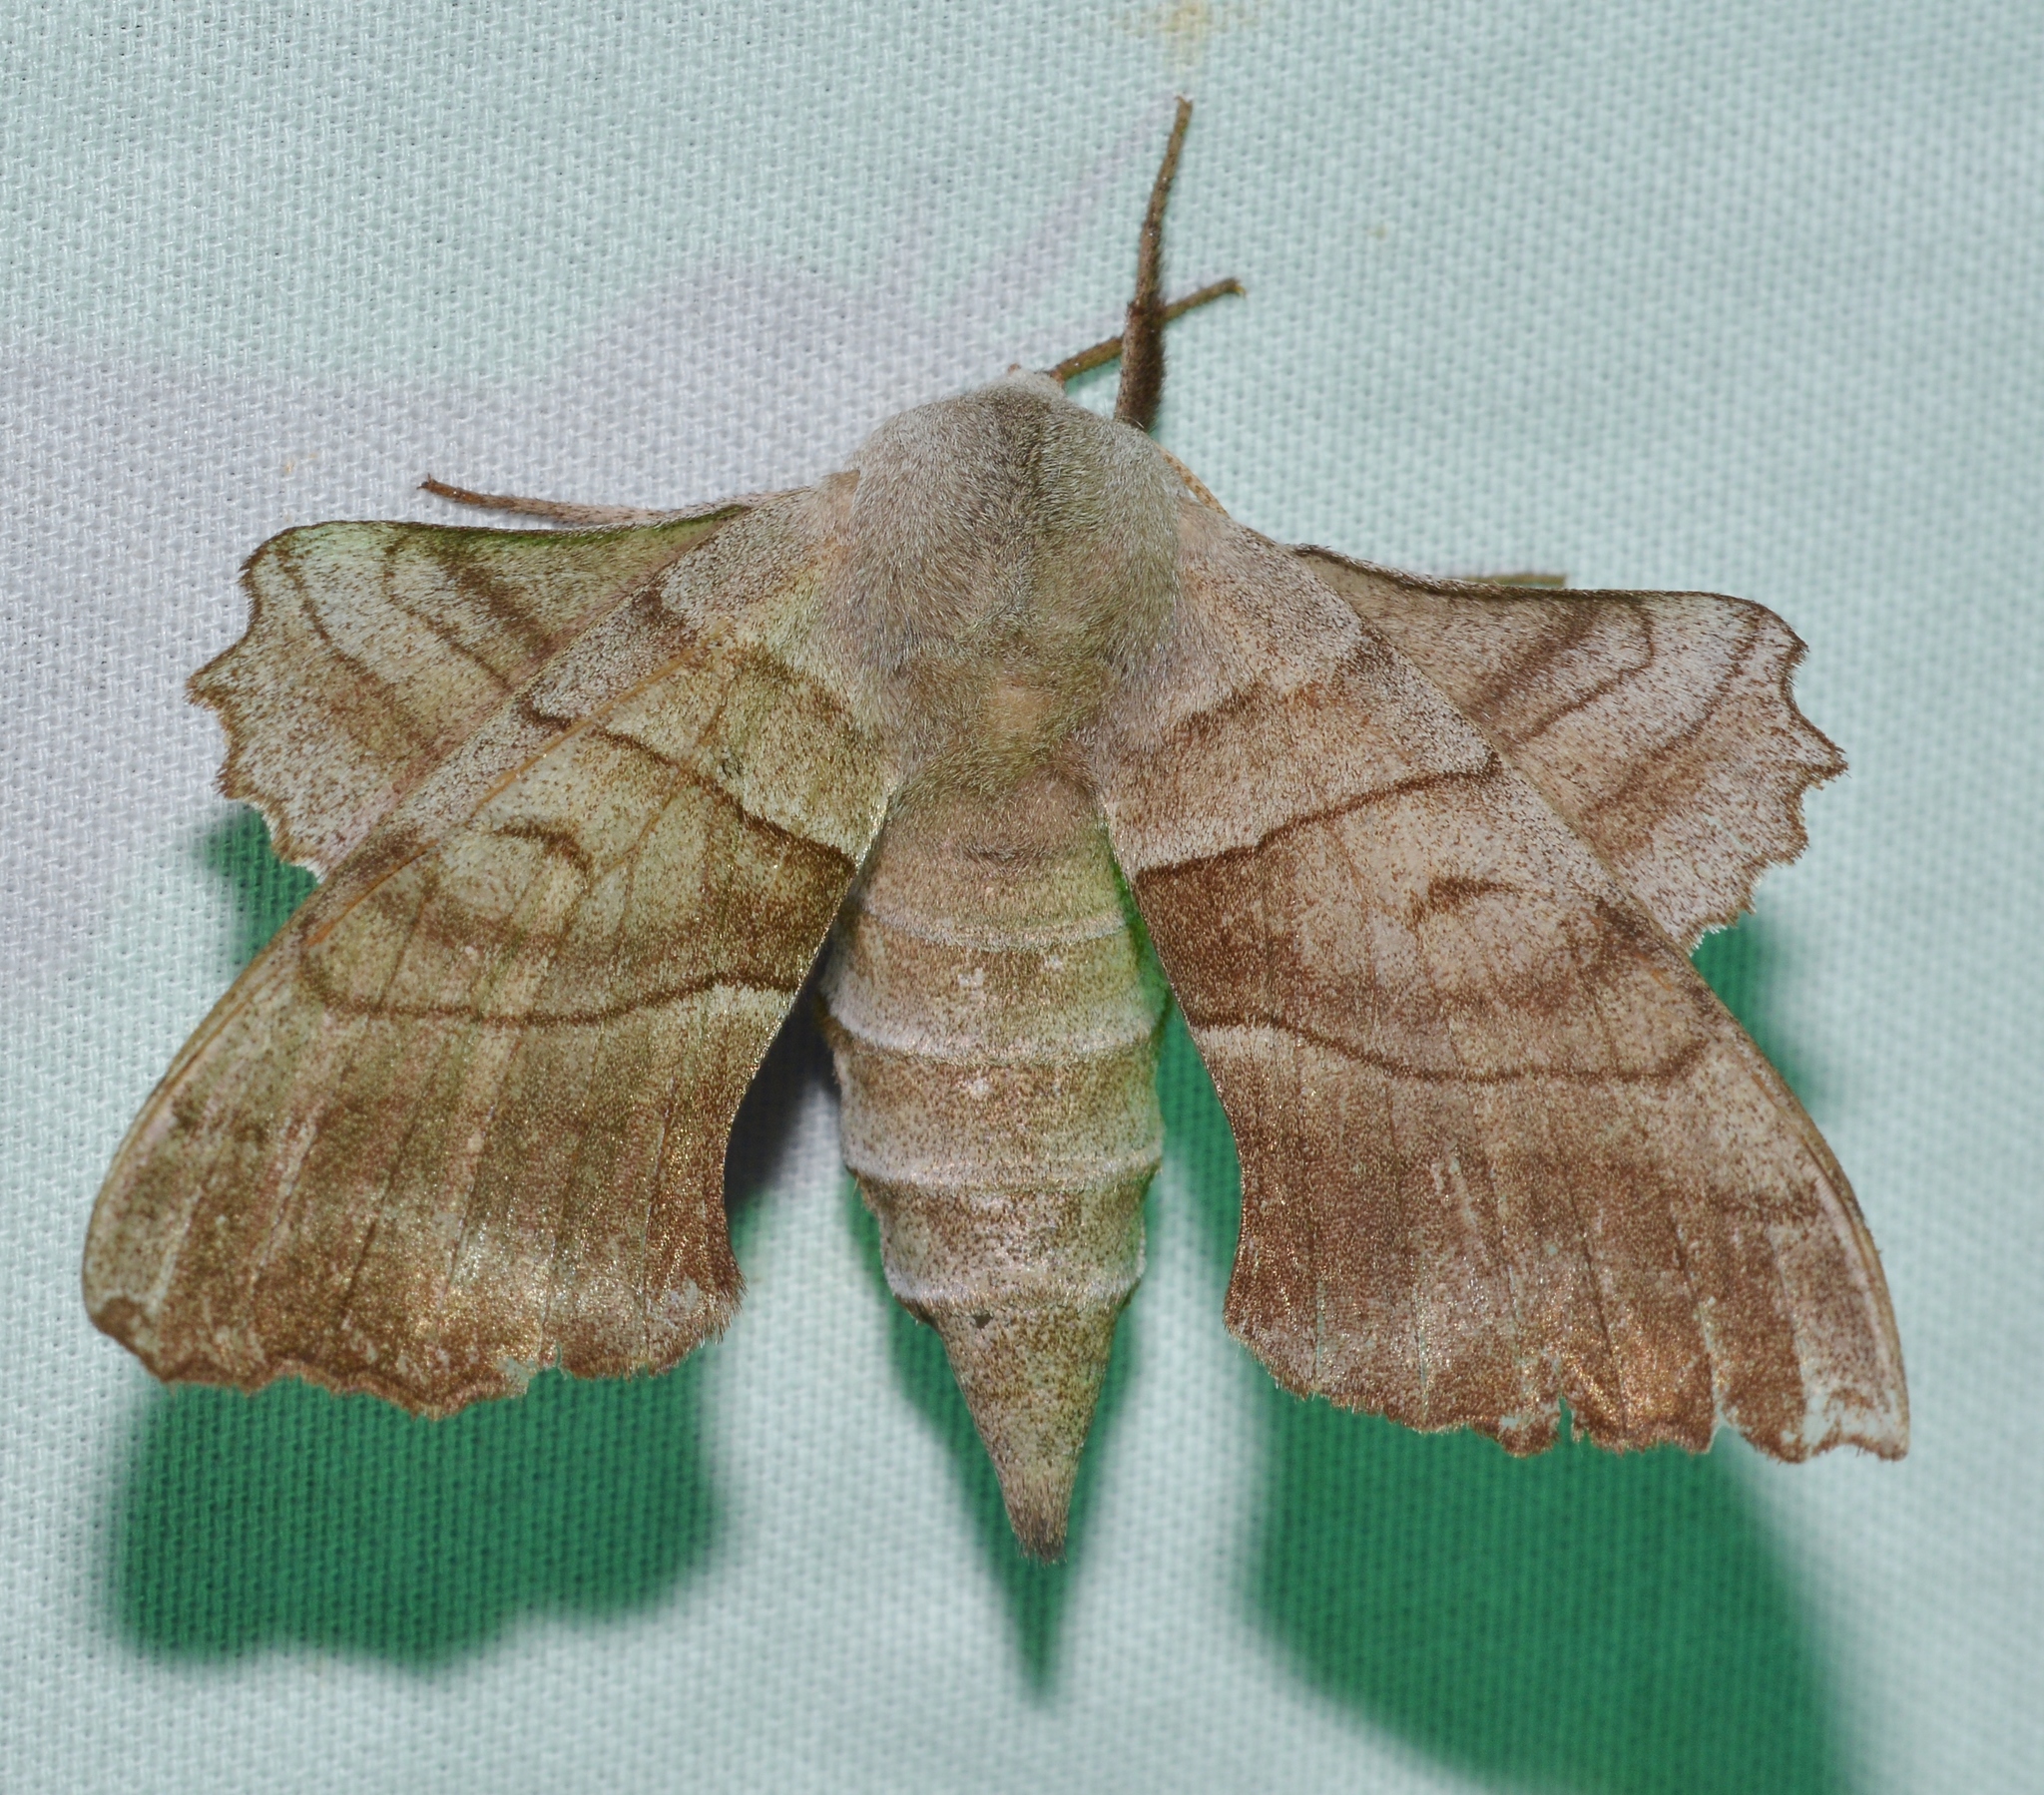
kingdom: Animalia
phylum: Arthropoda
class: Insecta
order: Lepidoptera
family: Sphingidae
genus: Amorpha
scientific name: Amorpha juglandis
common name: Walnut sphinx
